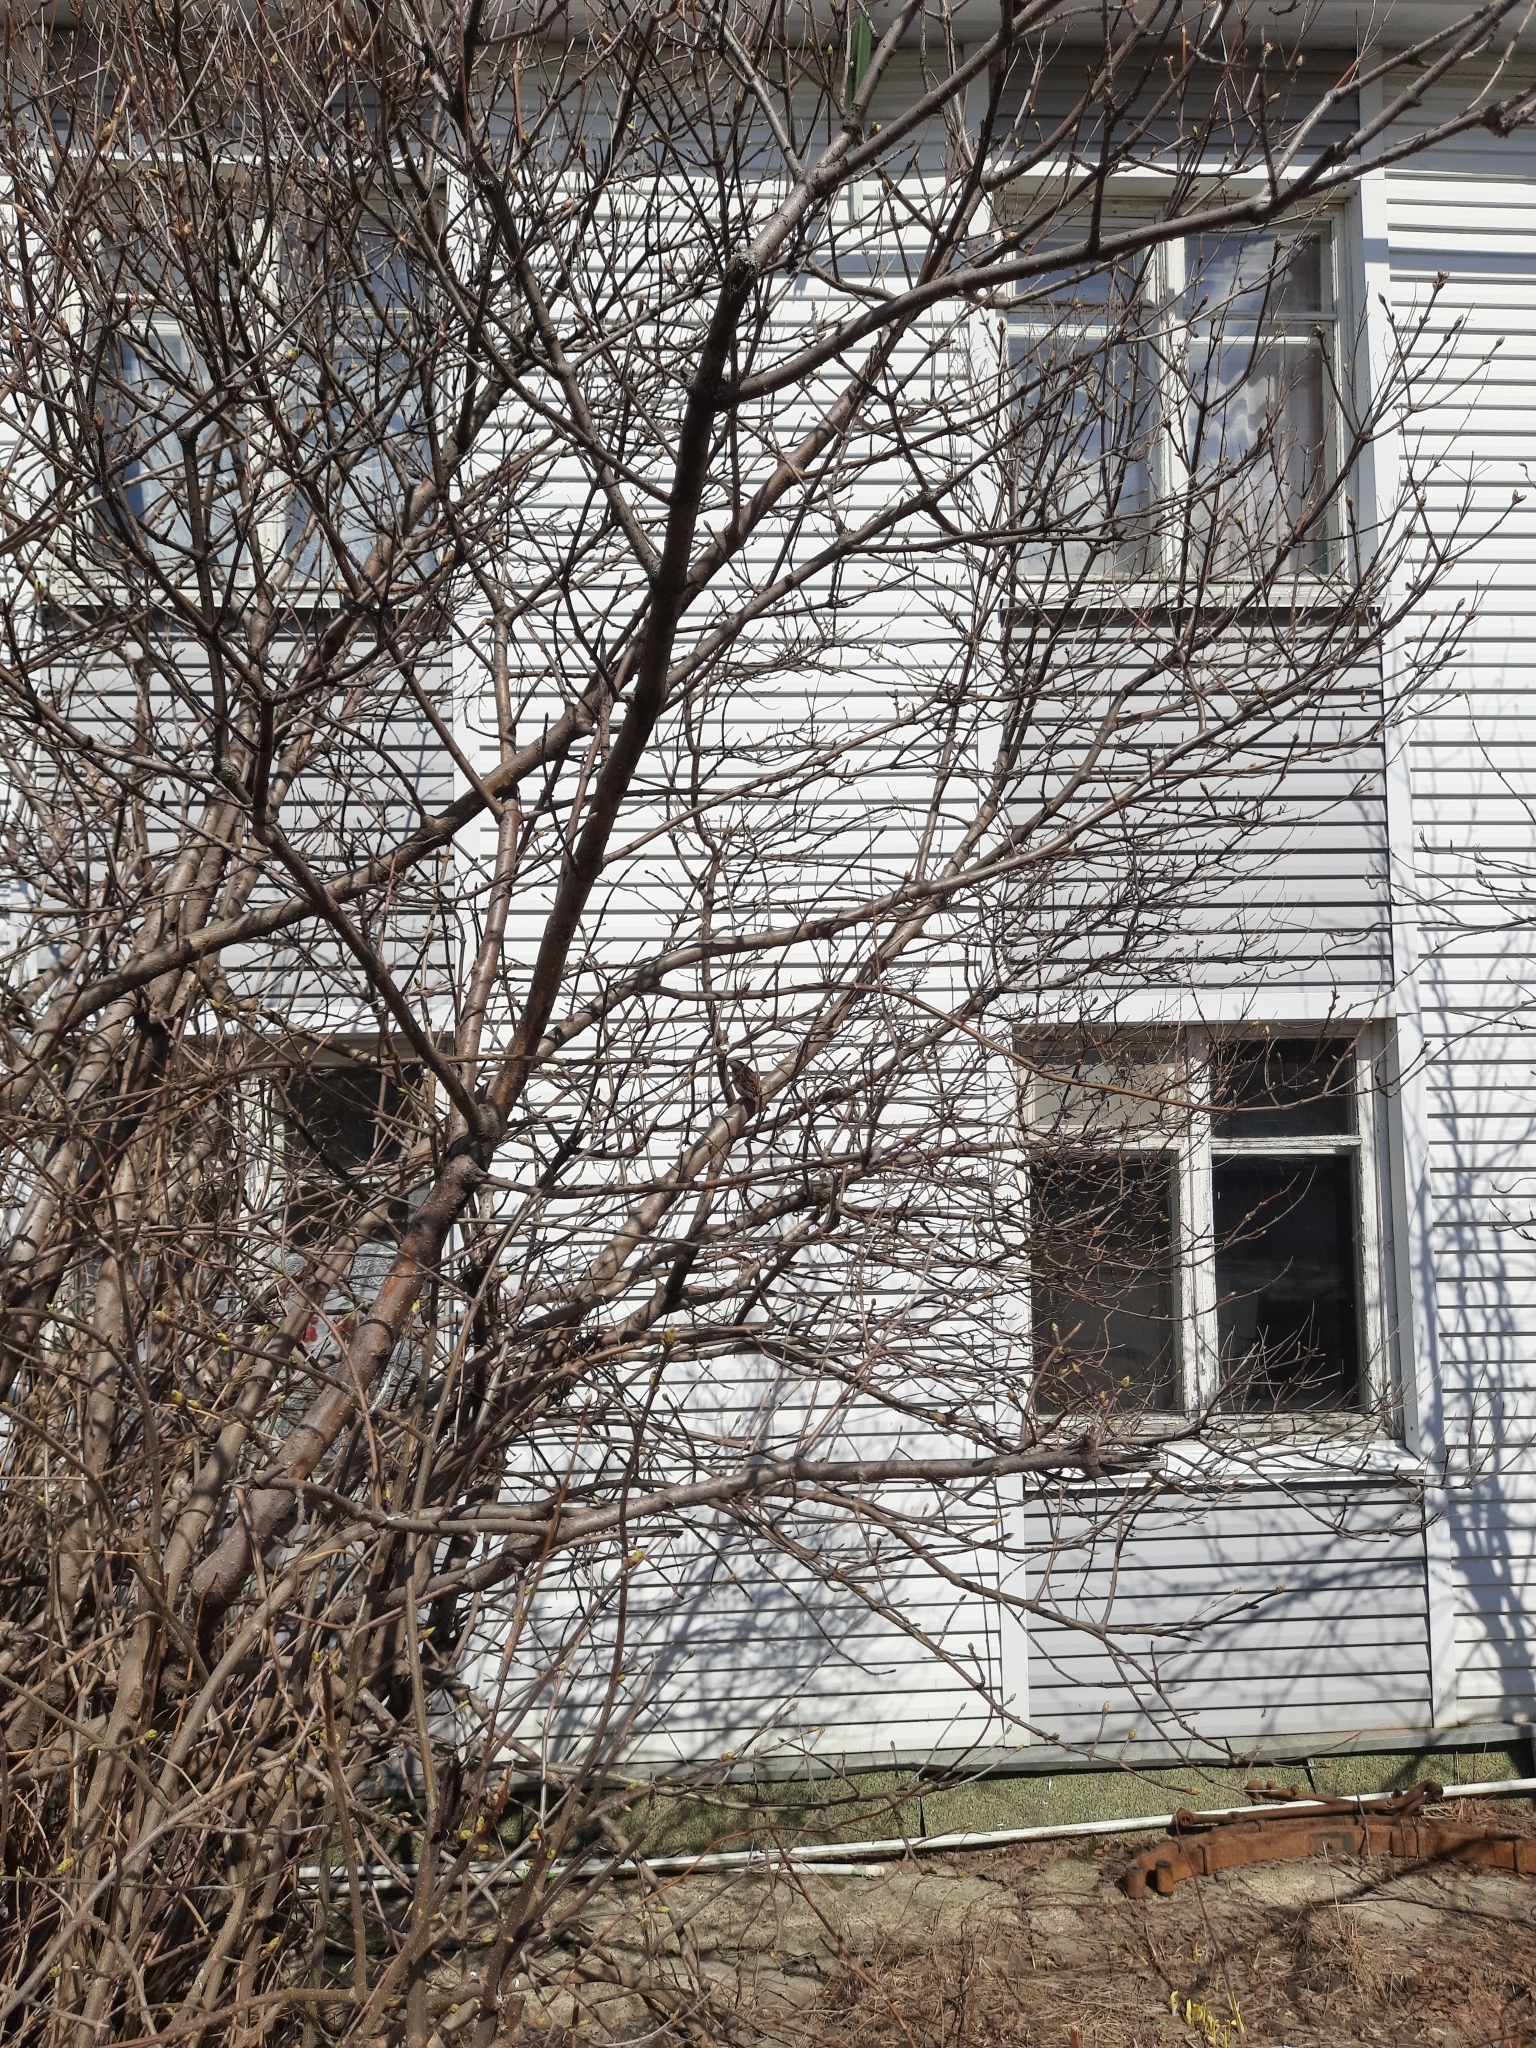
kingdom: Plantae
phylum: Tracheophyta
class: Magnoliopsida
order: Rosales
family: Rosaceae
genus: Prunus
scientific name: Prunus padus
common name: Bird cherry
